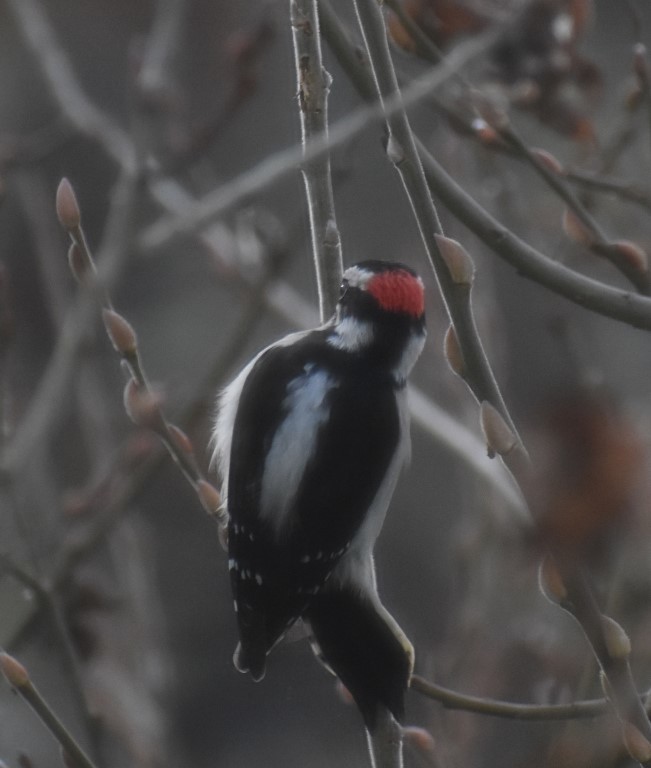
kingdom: Animalia
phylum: Chordata
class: Aves
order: Piciformes
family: Picidae
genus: Dryobates
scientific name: Dryobates pubescens
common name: Downy woodpecker
